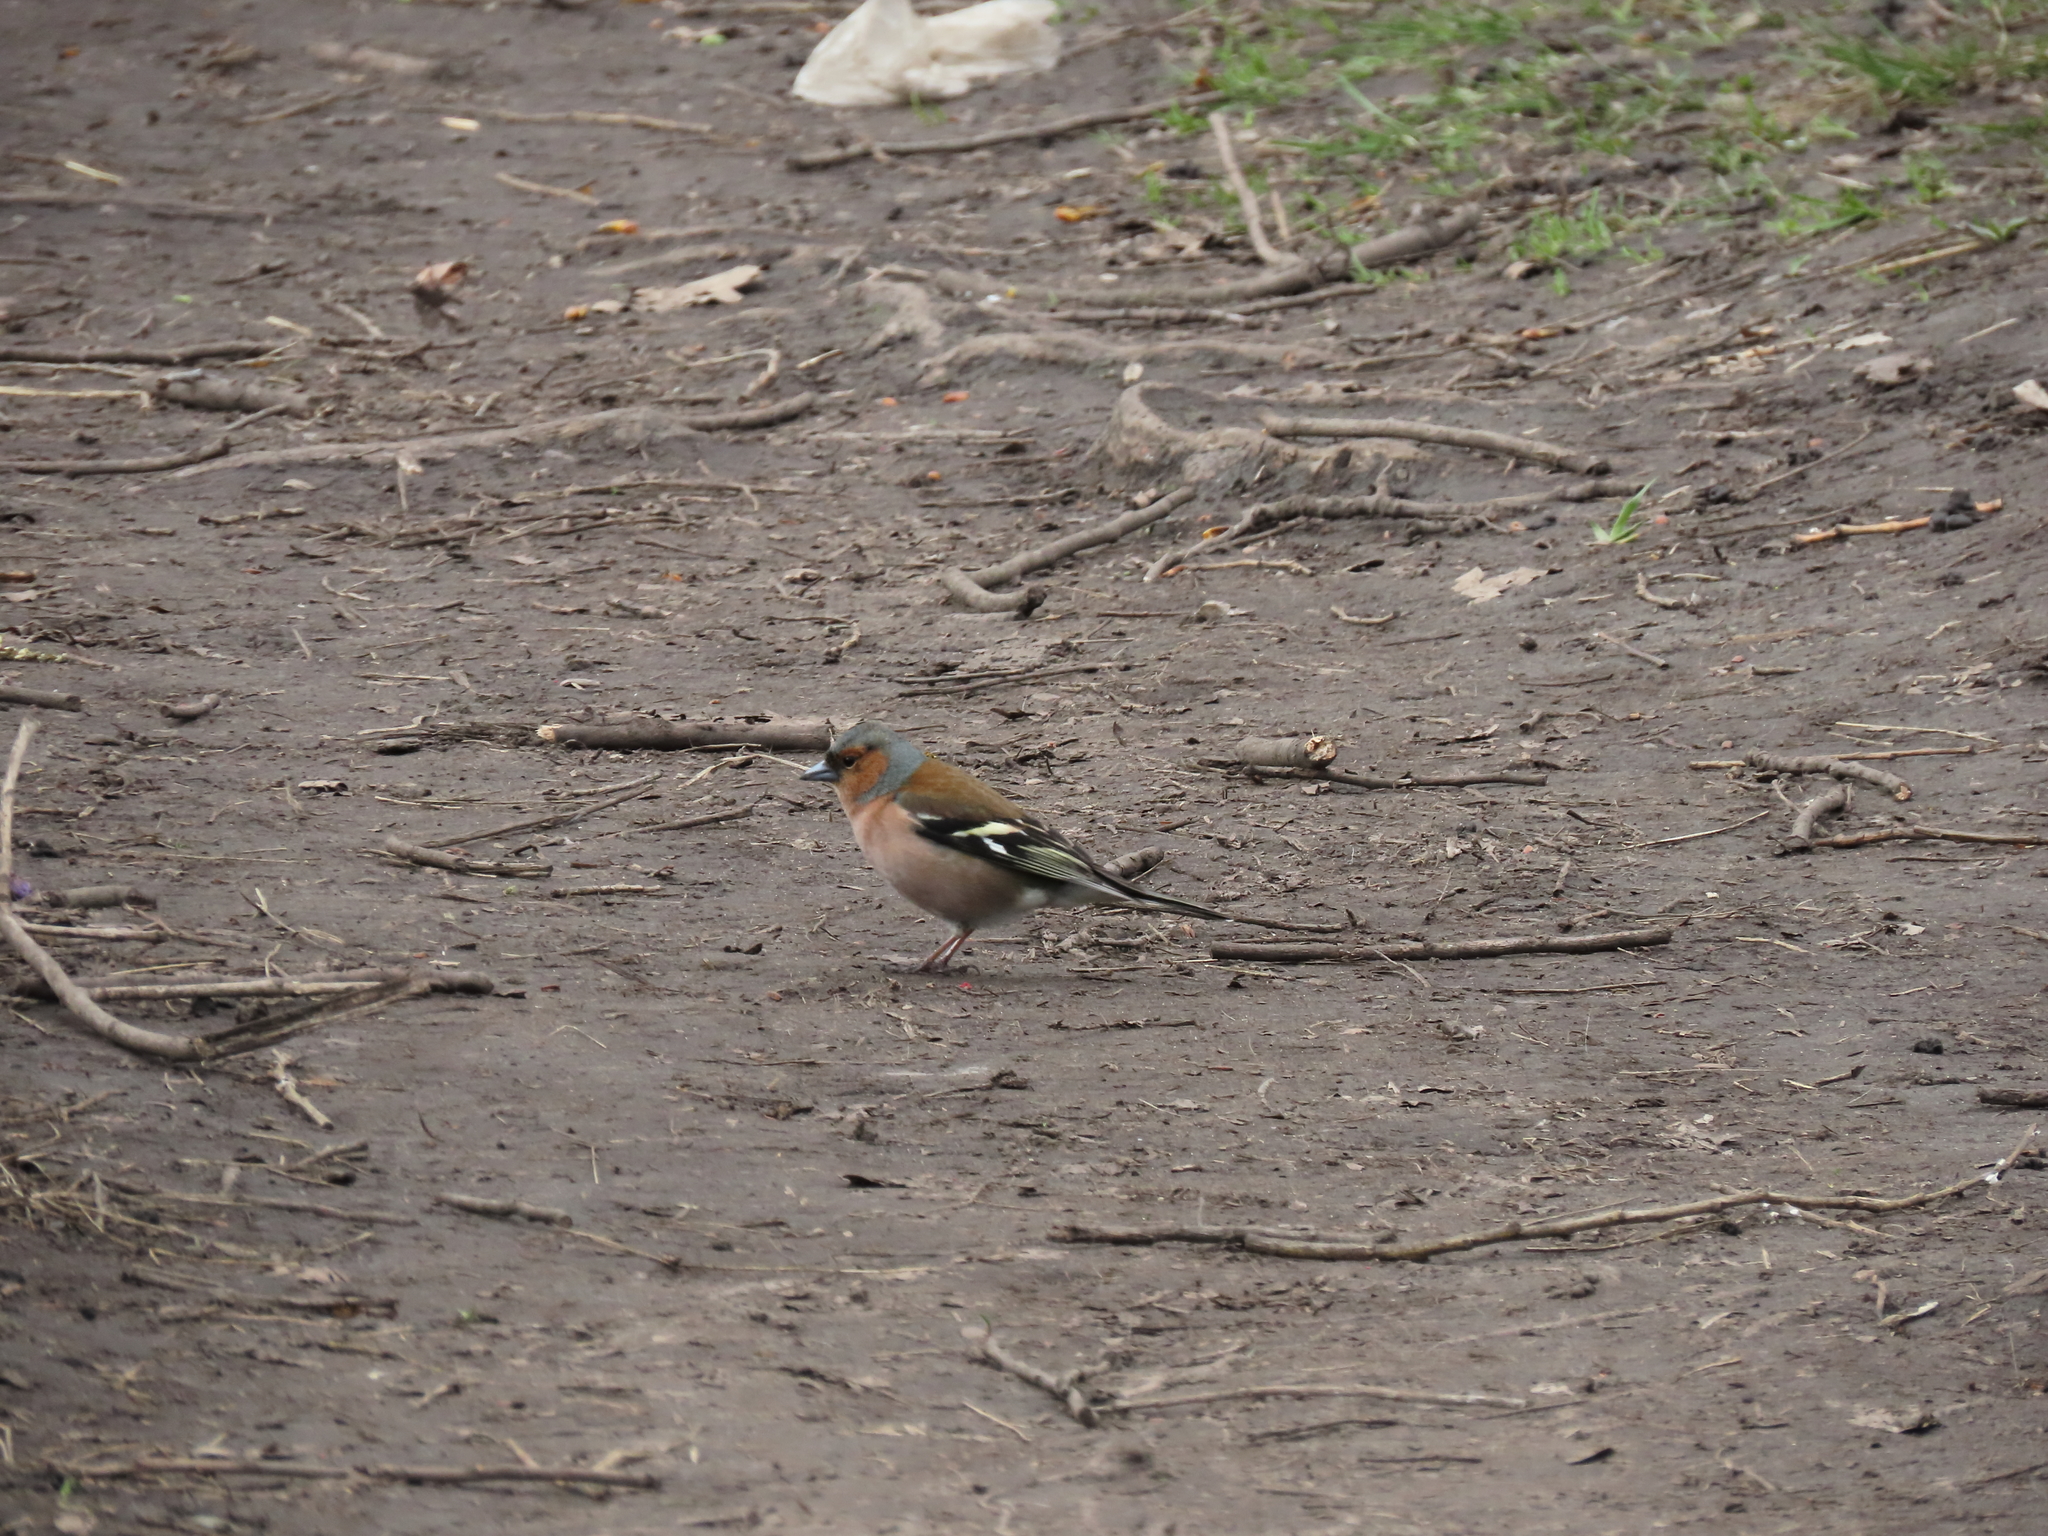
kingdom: Animalia
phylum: Chordata
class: Aves
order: Passeriformes
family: Fringillidae
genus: Fringilla
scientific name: Fringilla coelebs
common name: Common chaffinch
